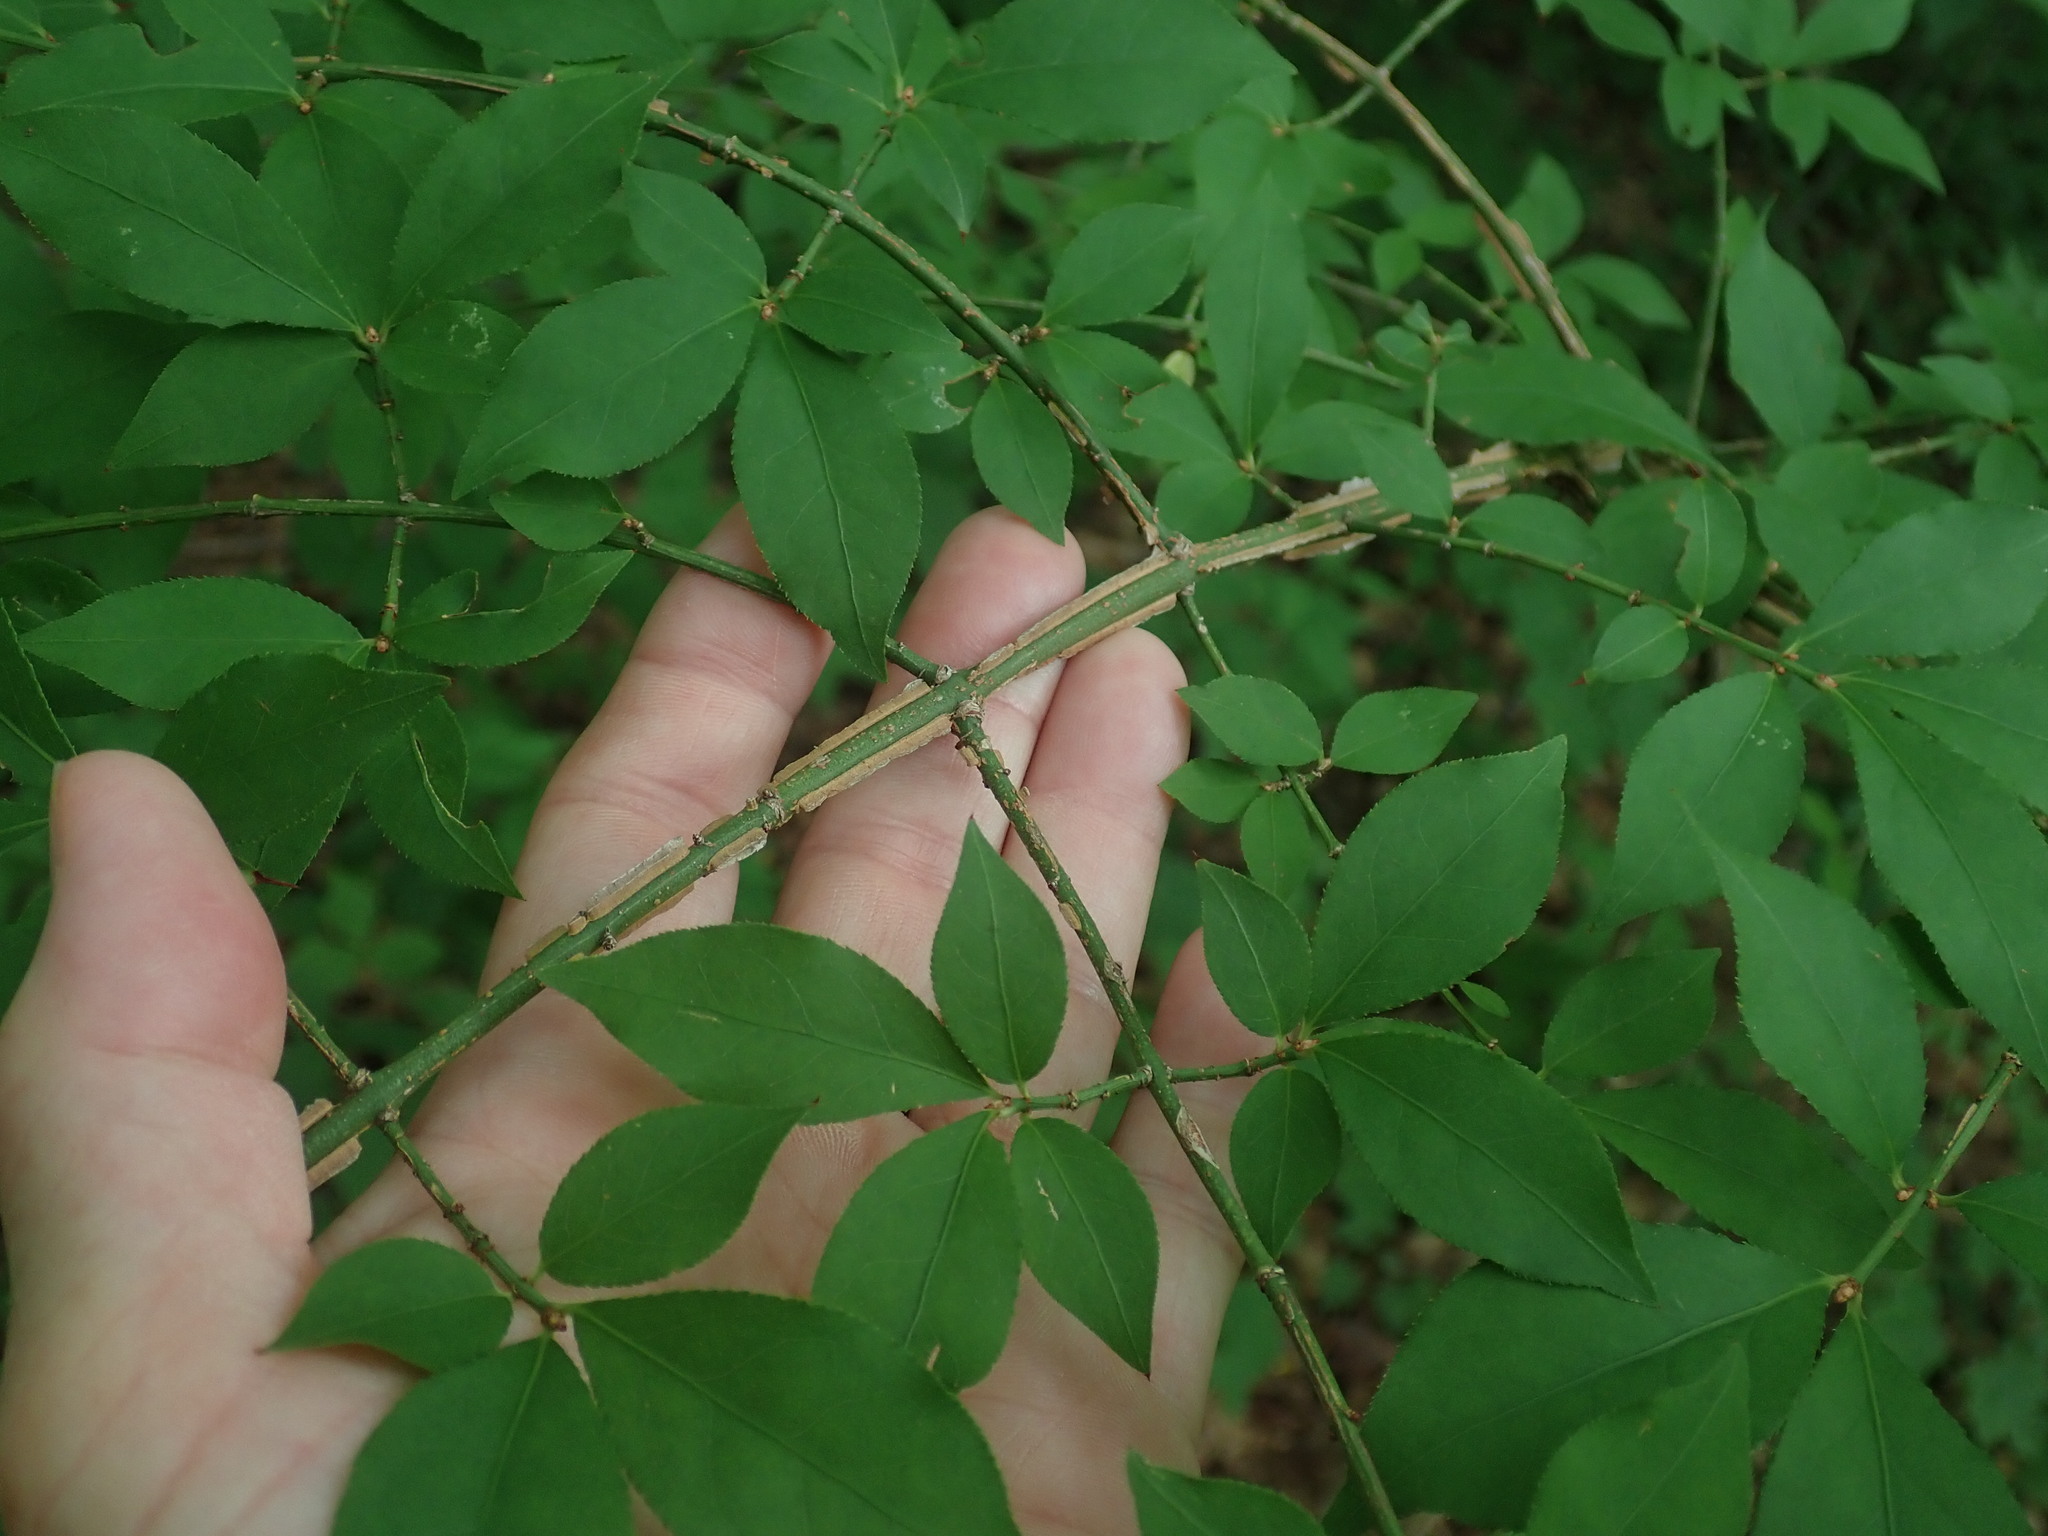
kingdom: Plantae
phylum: Tracheophyta
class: Magnoliopsida
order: Celastrales
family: Celastraceae
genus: Euonymus
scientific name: Euonymus alatus
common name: Winged euonymus
